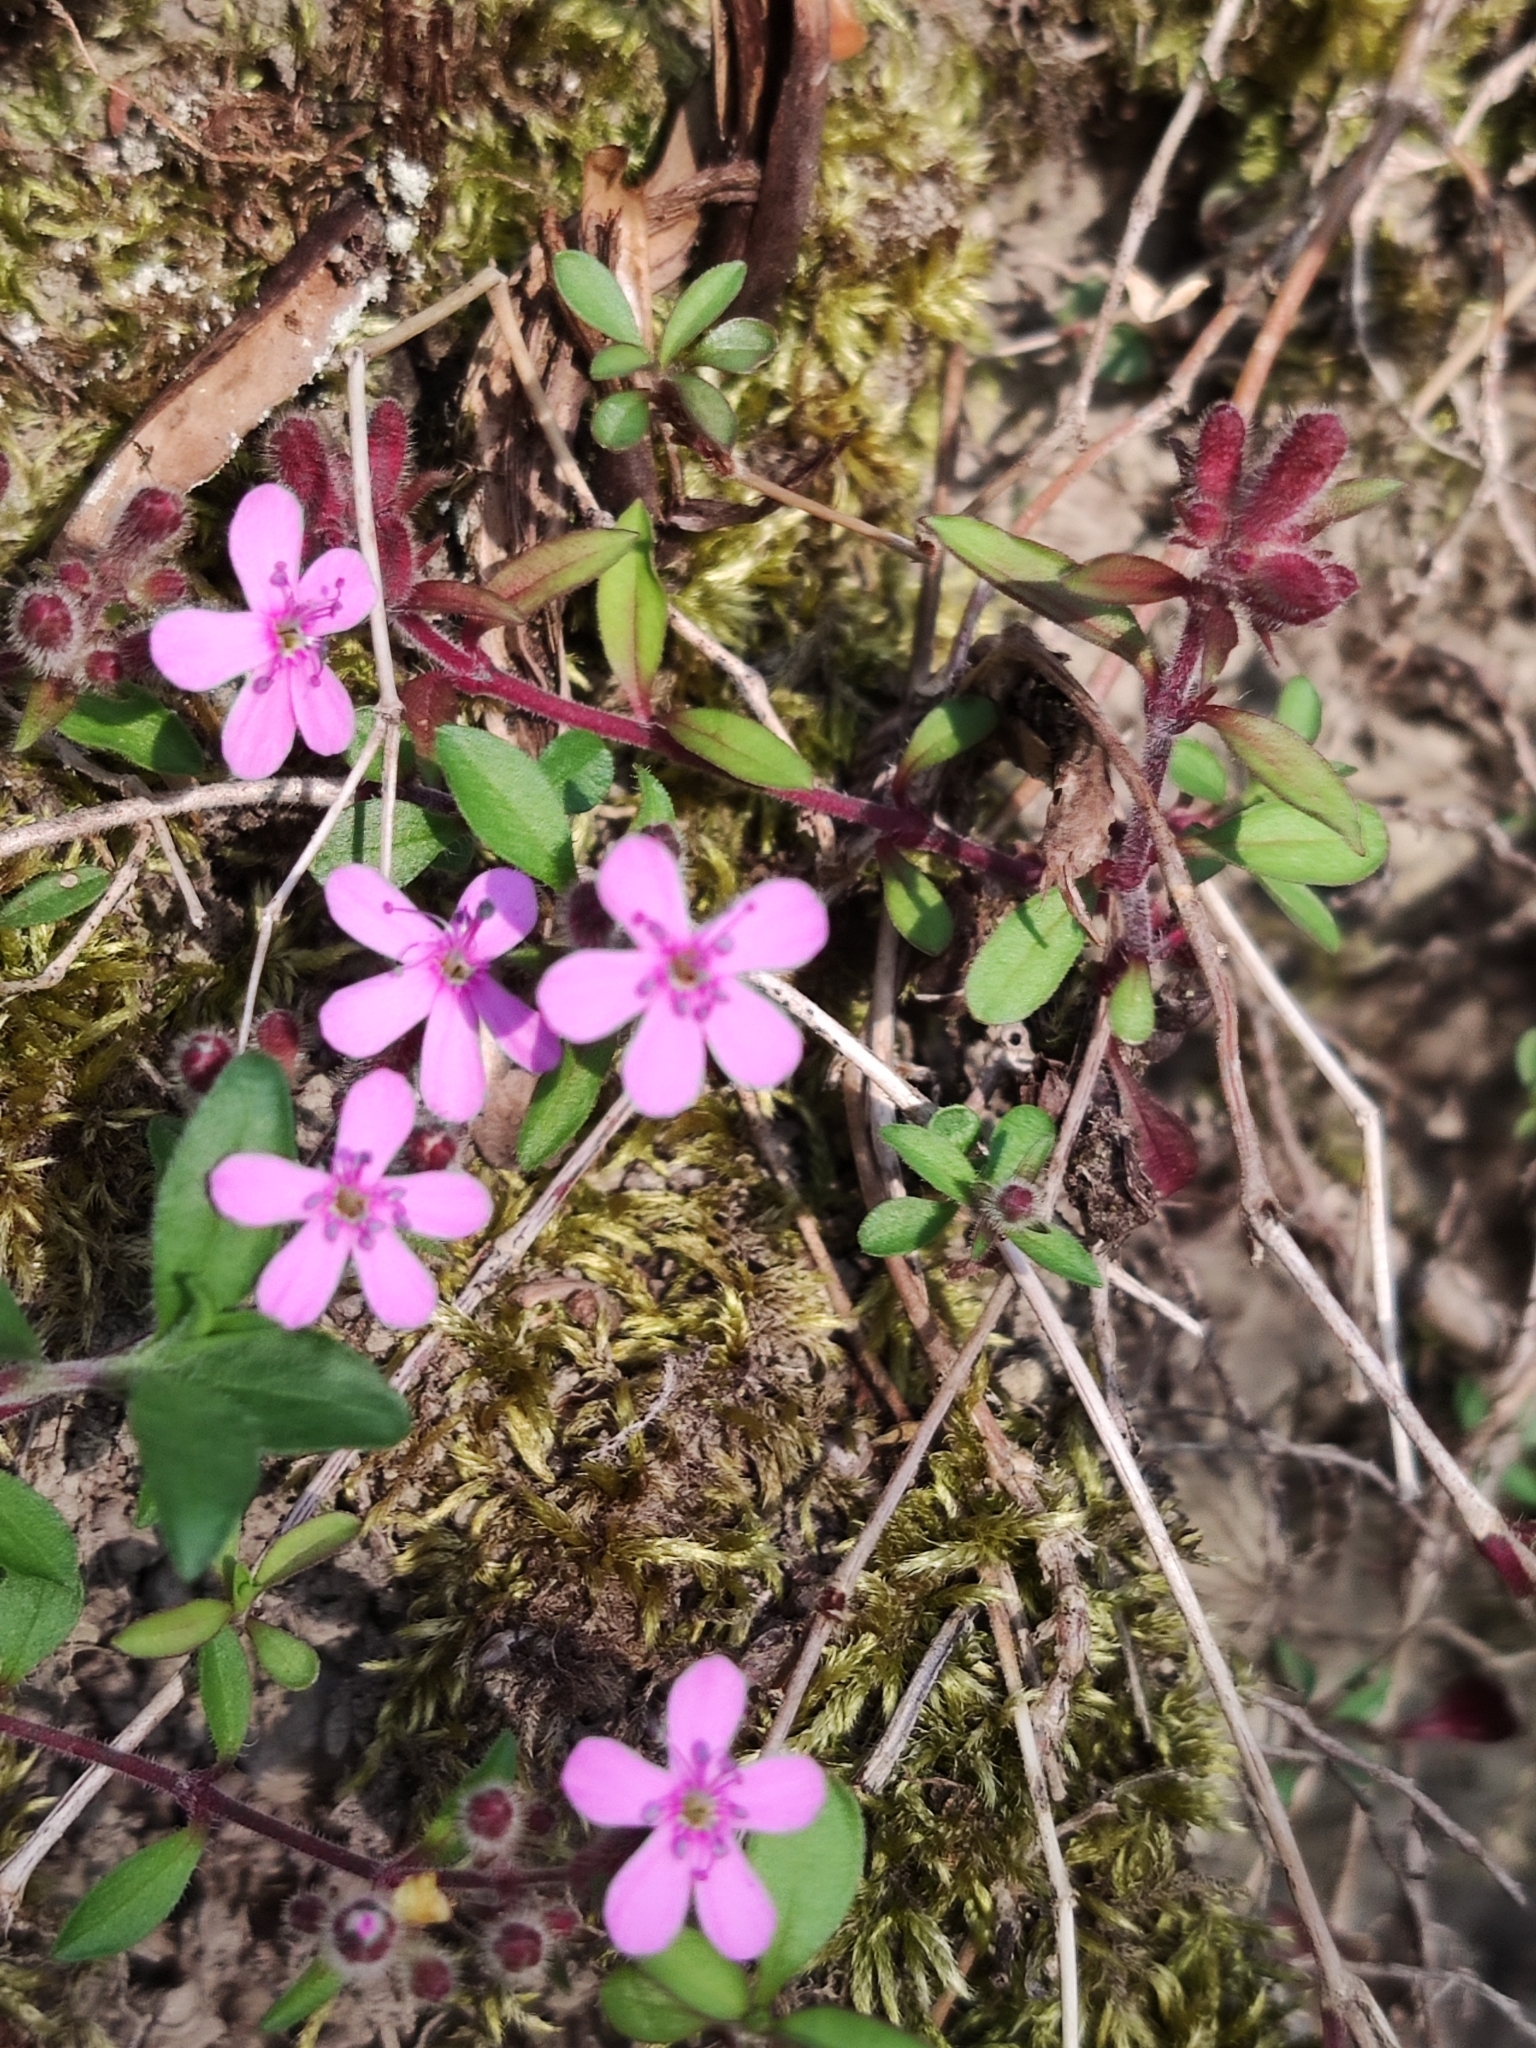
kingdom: Plantae
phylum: Tracheophyta
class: Magnoliopsida
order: Caryophyllales
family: Caryophyllaceae
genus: Saponaria
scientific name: Saponaria ocymoides
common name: Rock soapwort
